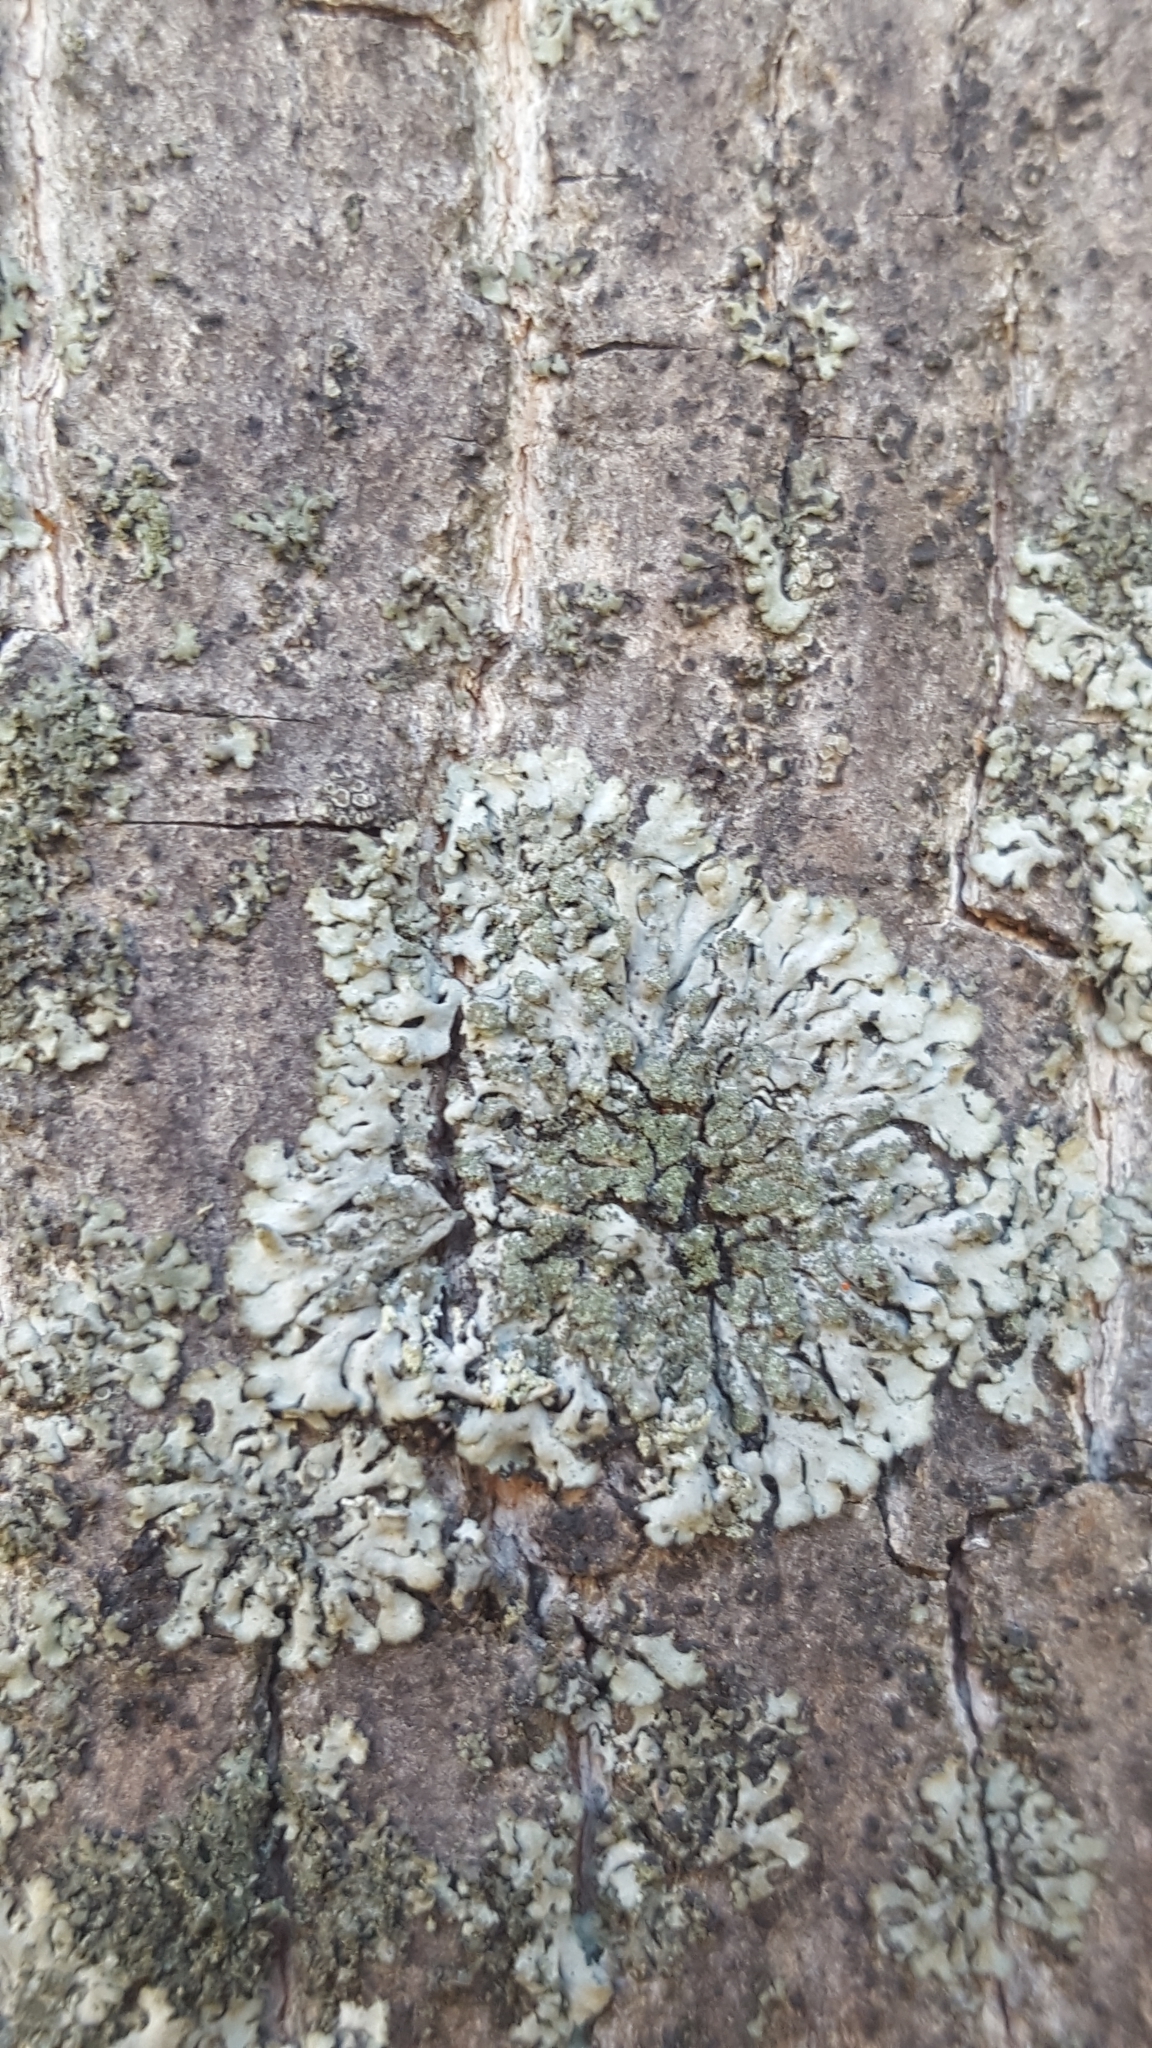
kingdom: Fungi
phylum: Ascomycota
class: Lecanoromycetes
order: Caliciales
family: Physciaceae
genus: Phaeophyscia
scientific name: Phaeophyscia orbicularis
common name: Mealy shadow lichen
